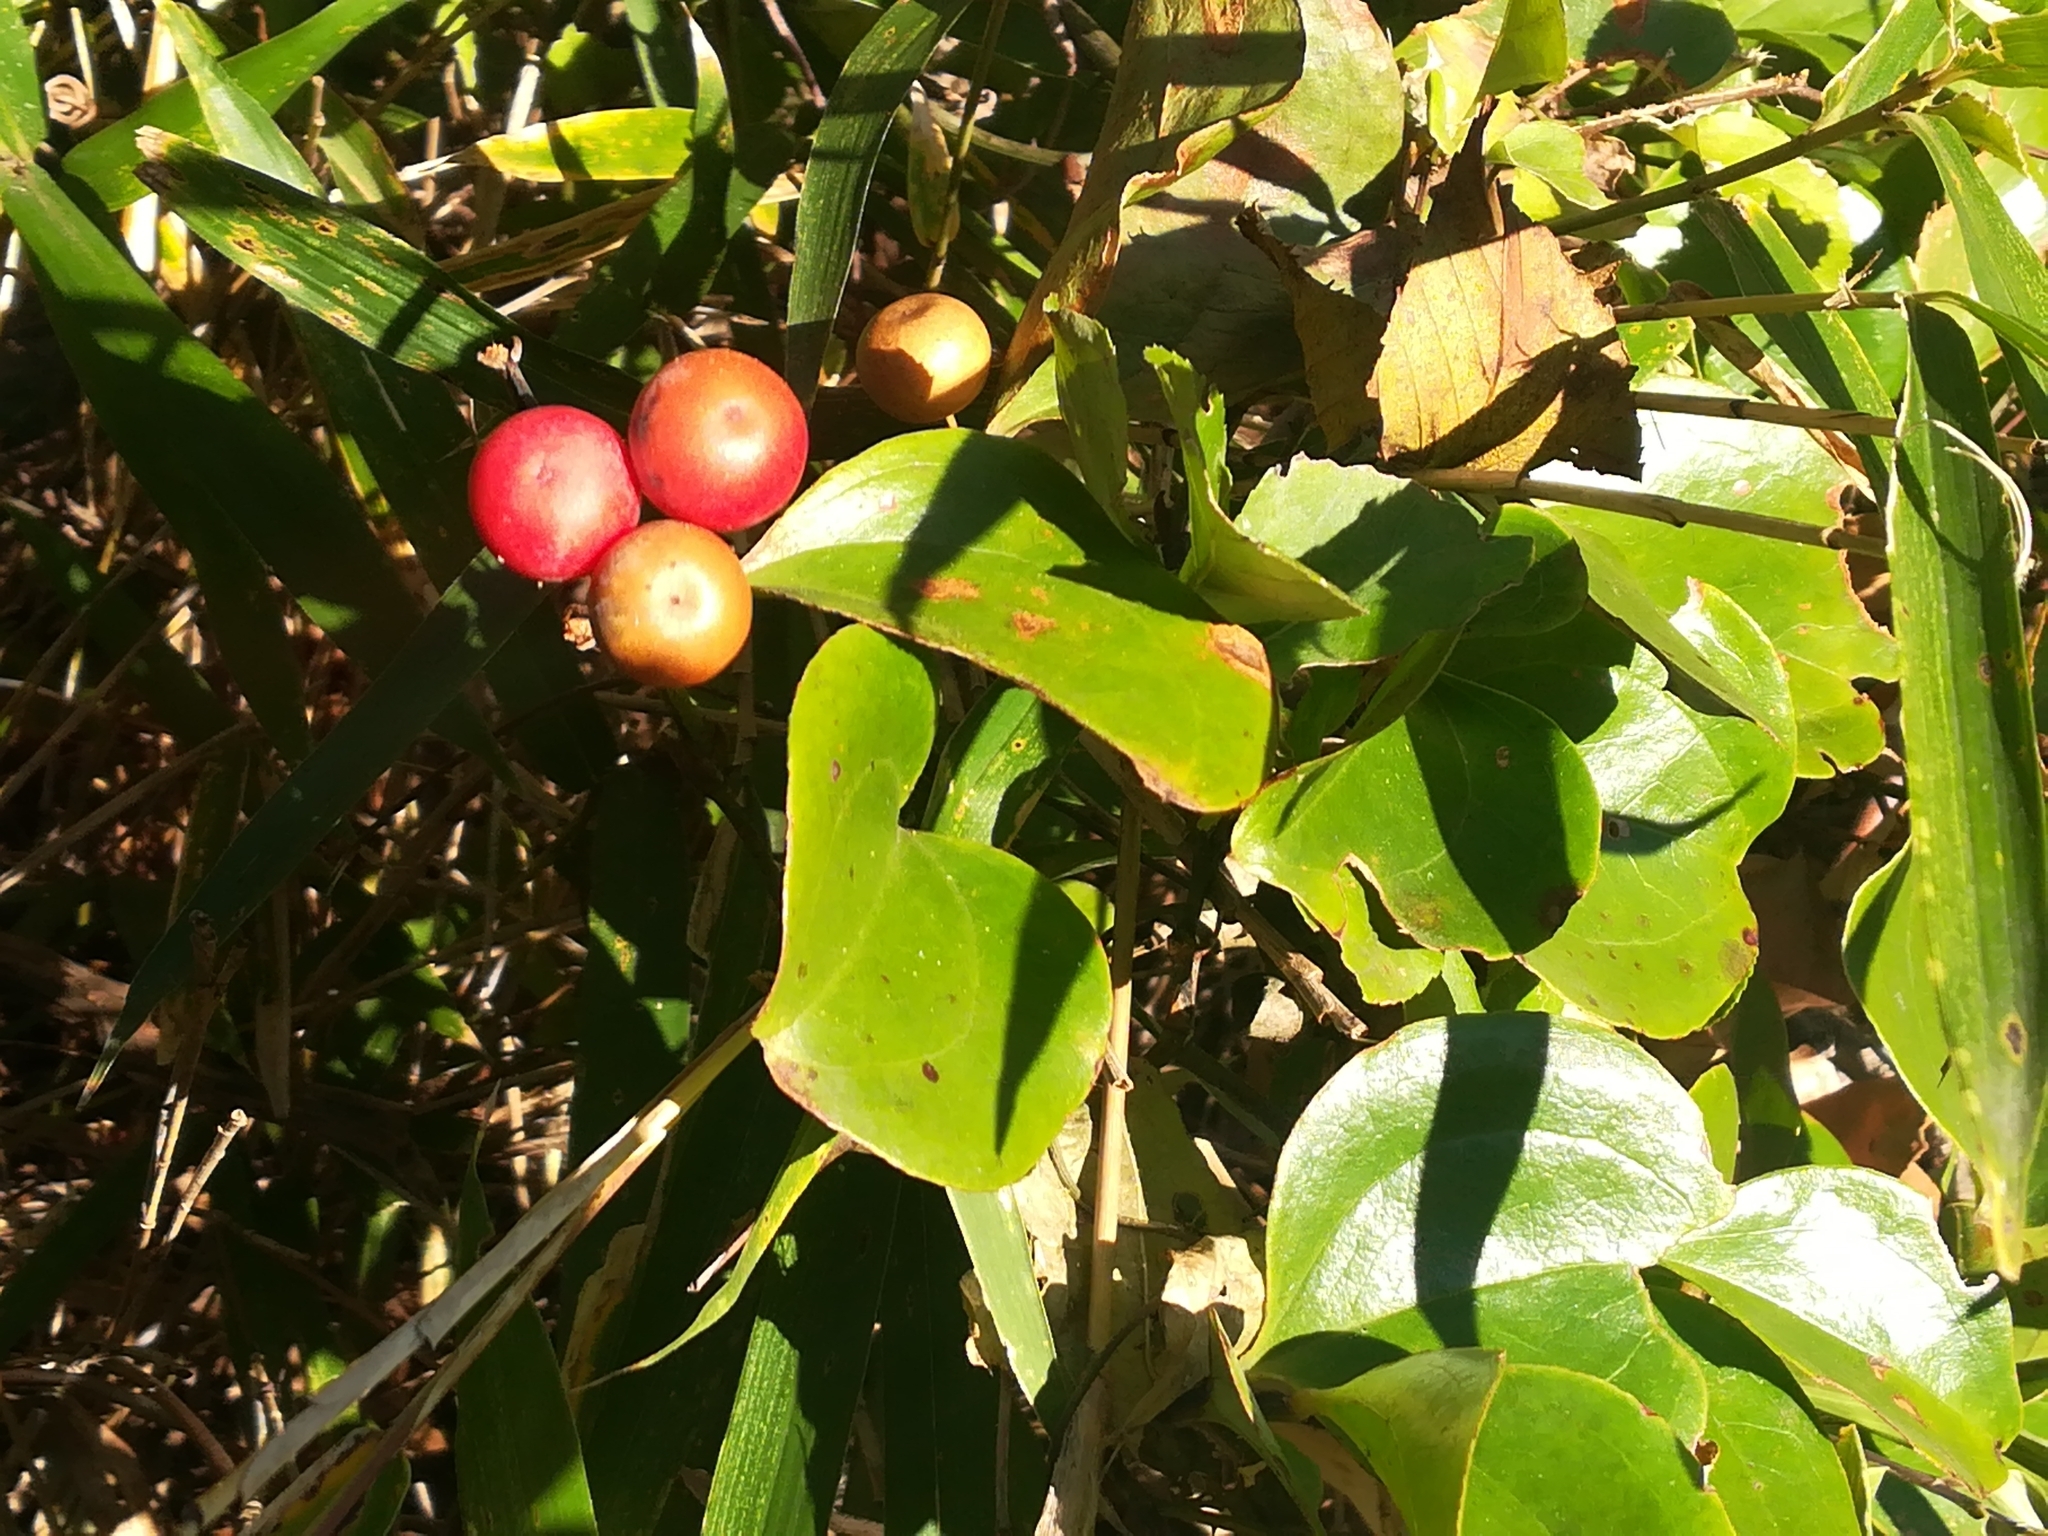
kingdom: Plantae
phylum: Tracheophyta
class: Liliopsida
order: Liliales
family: Smilacaceae
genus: Smilax
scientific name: Smilax china
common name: Chinaroot
